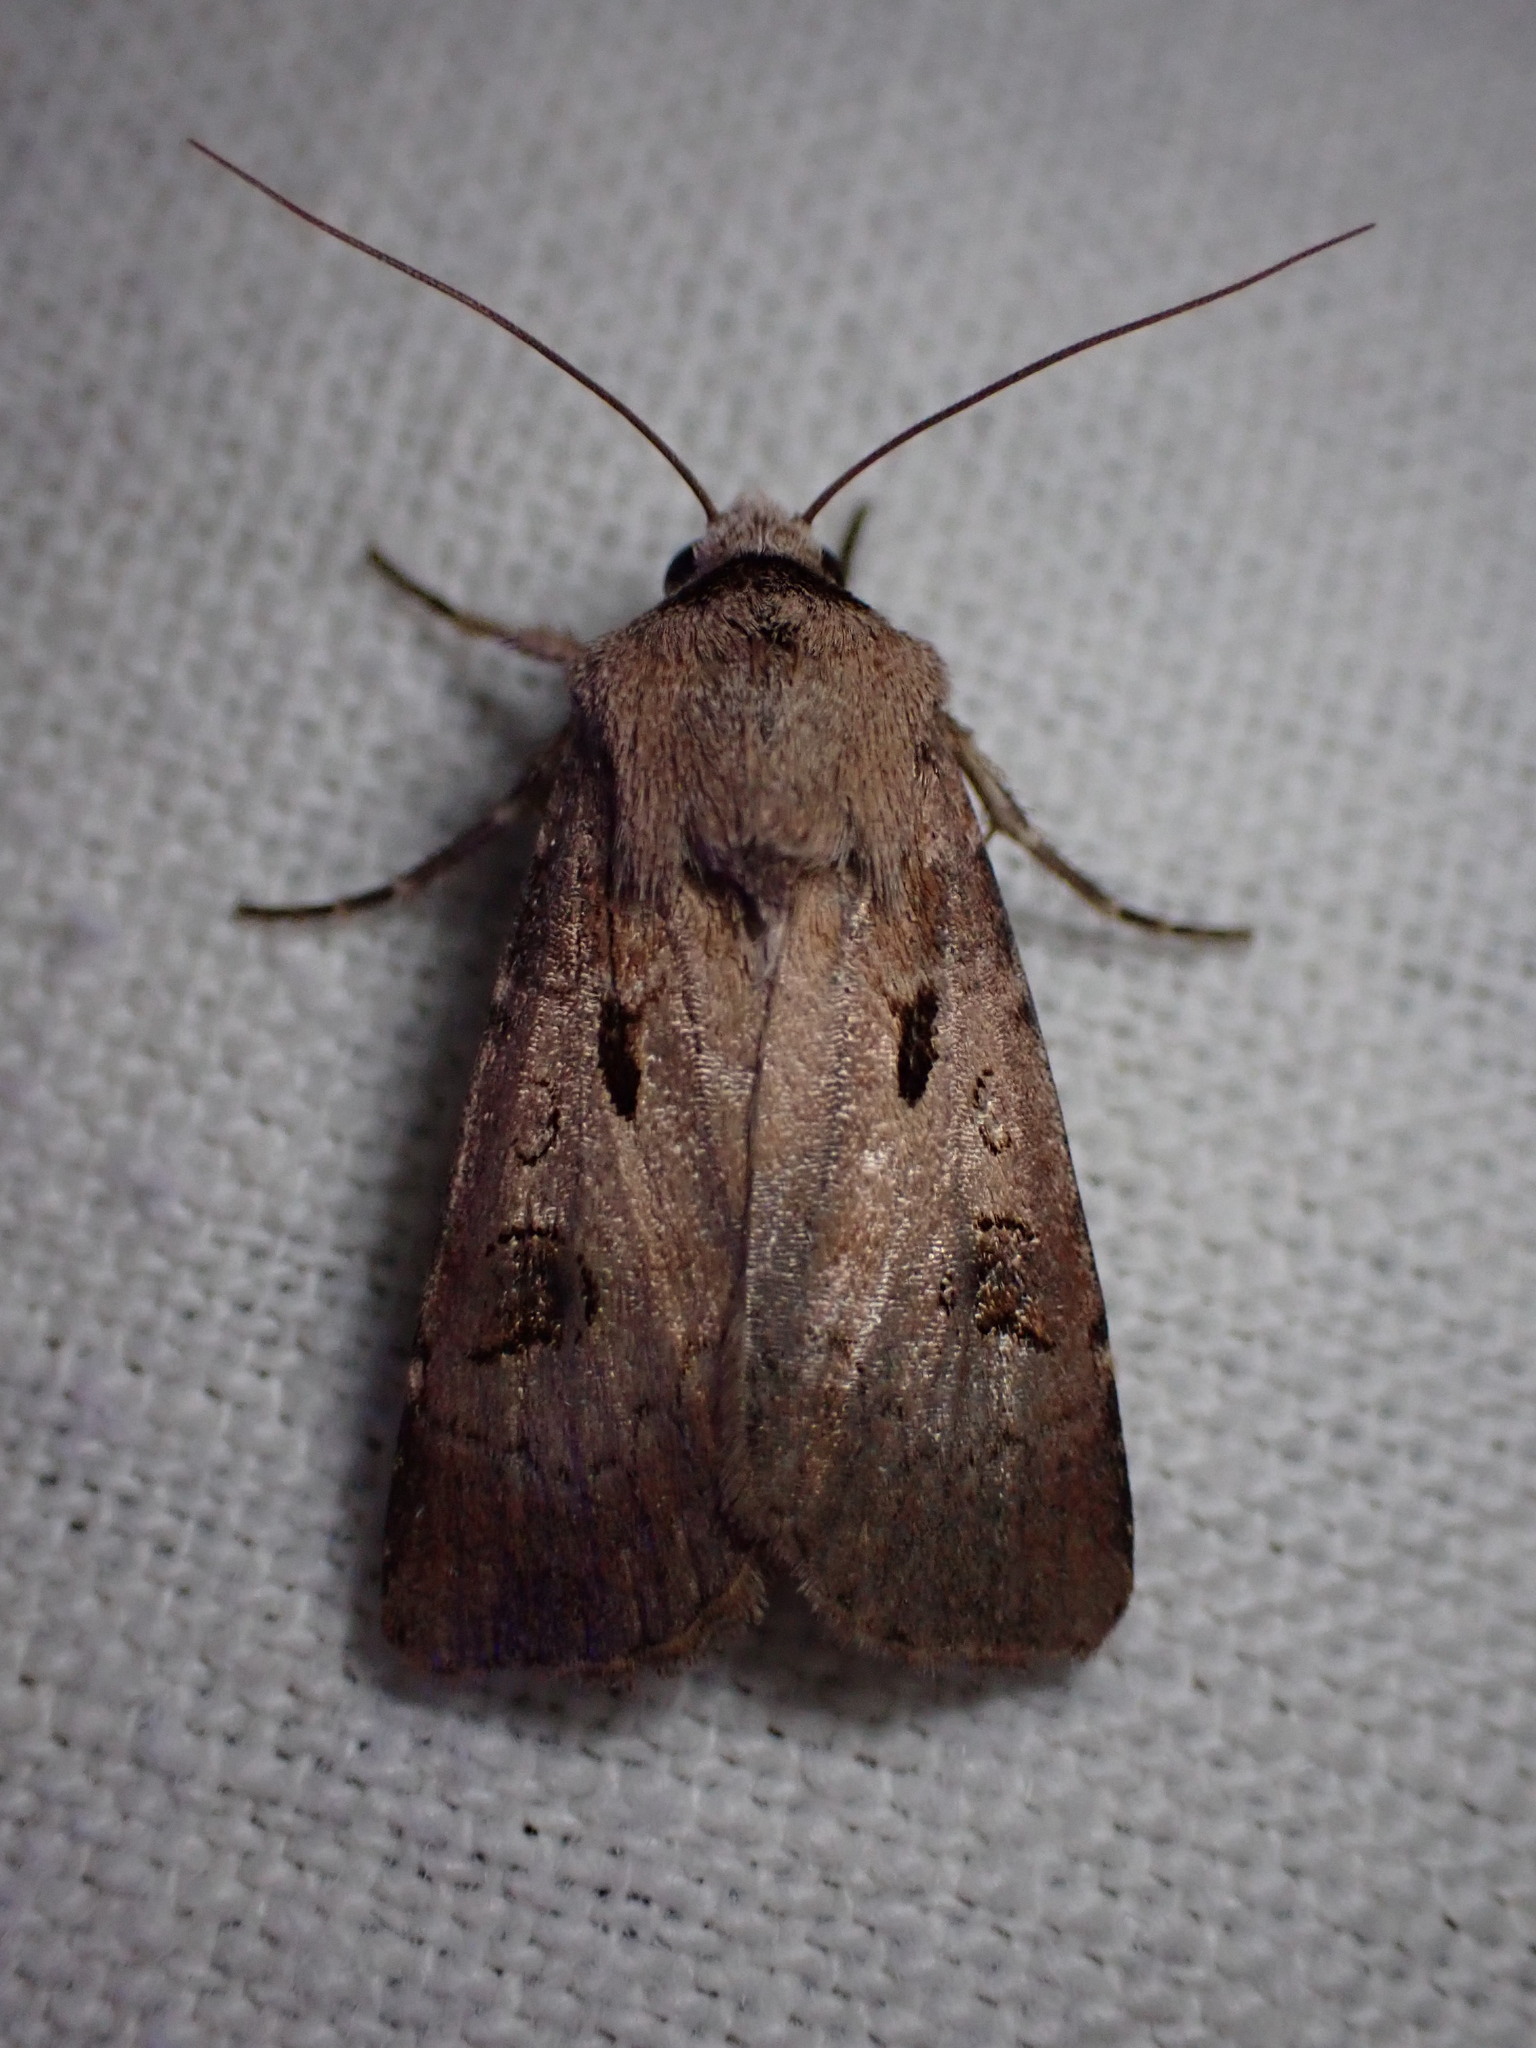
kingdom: Animalia
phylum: Arthropoda
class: Insecta
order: Lepidoptera
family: Noctuidae
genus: Agrotis
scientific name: Agrotis exclamationis
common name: Heart and dart
